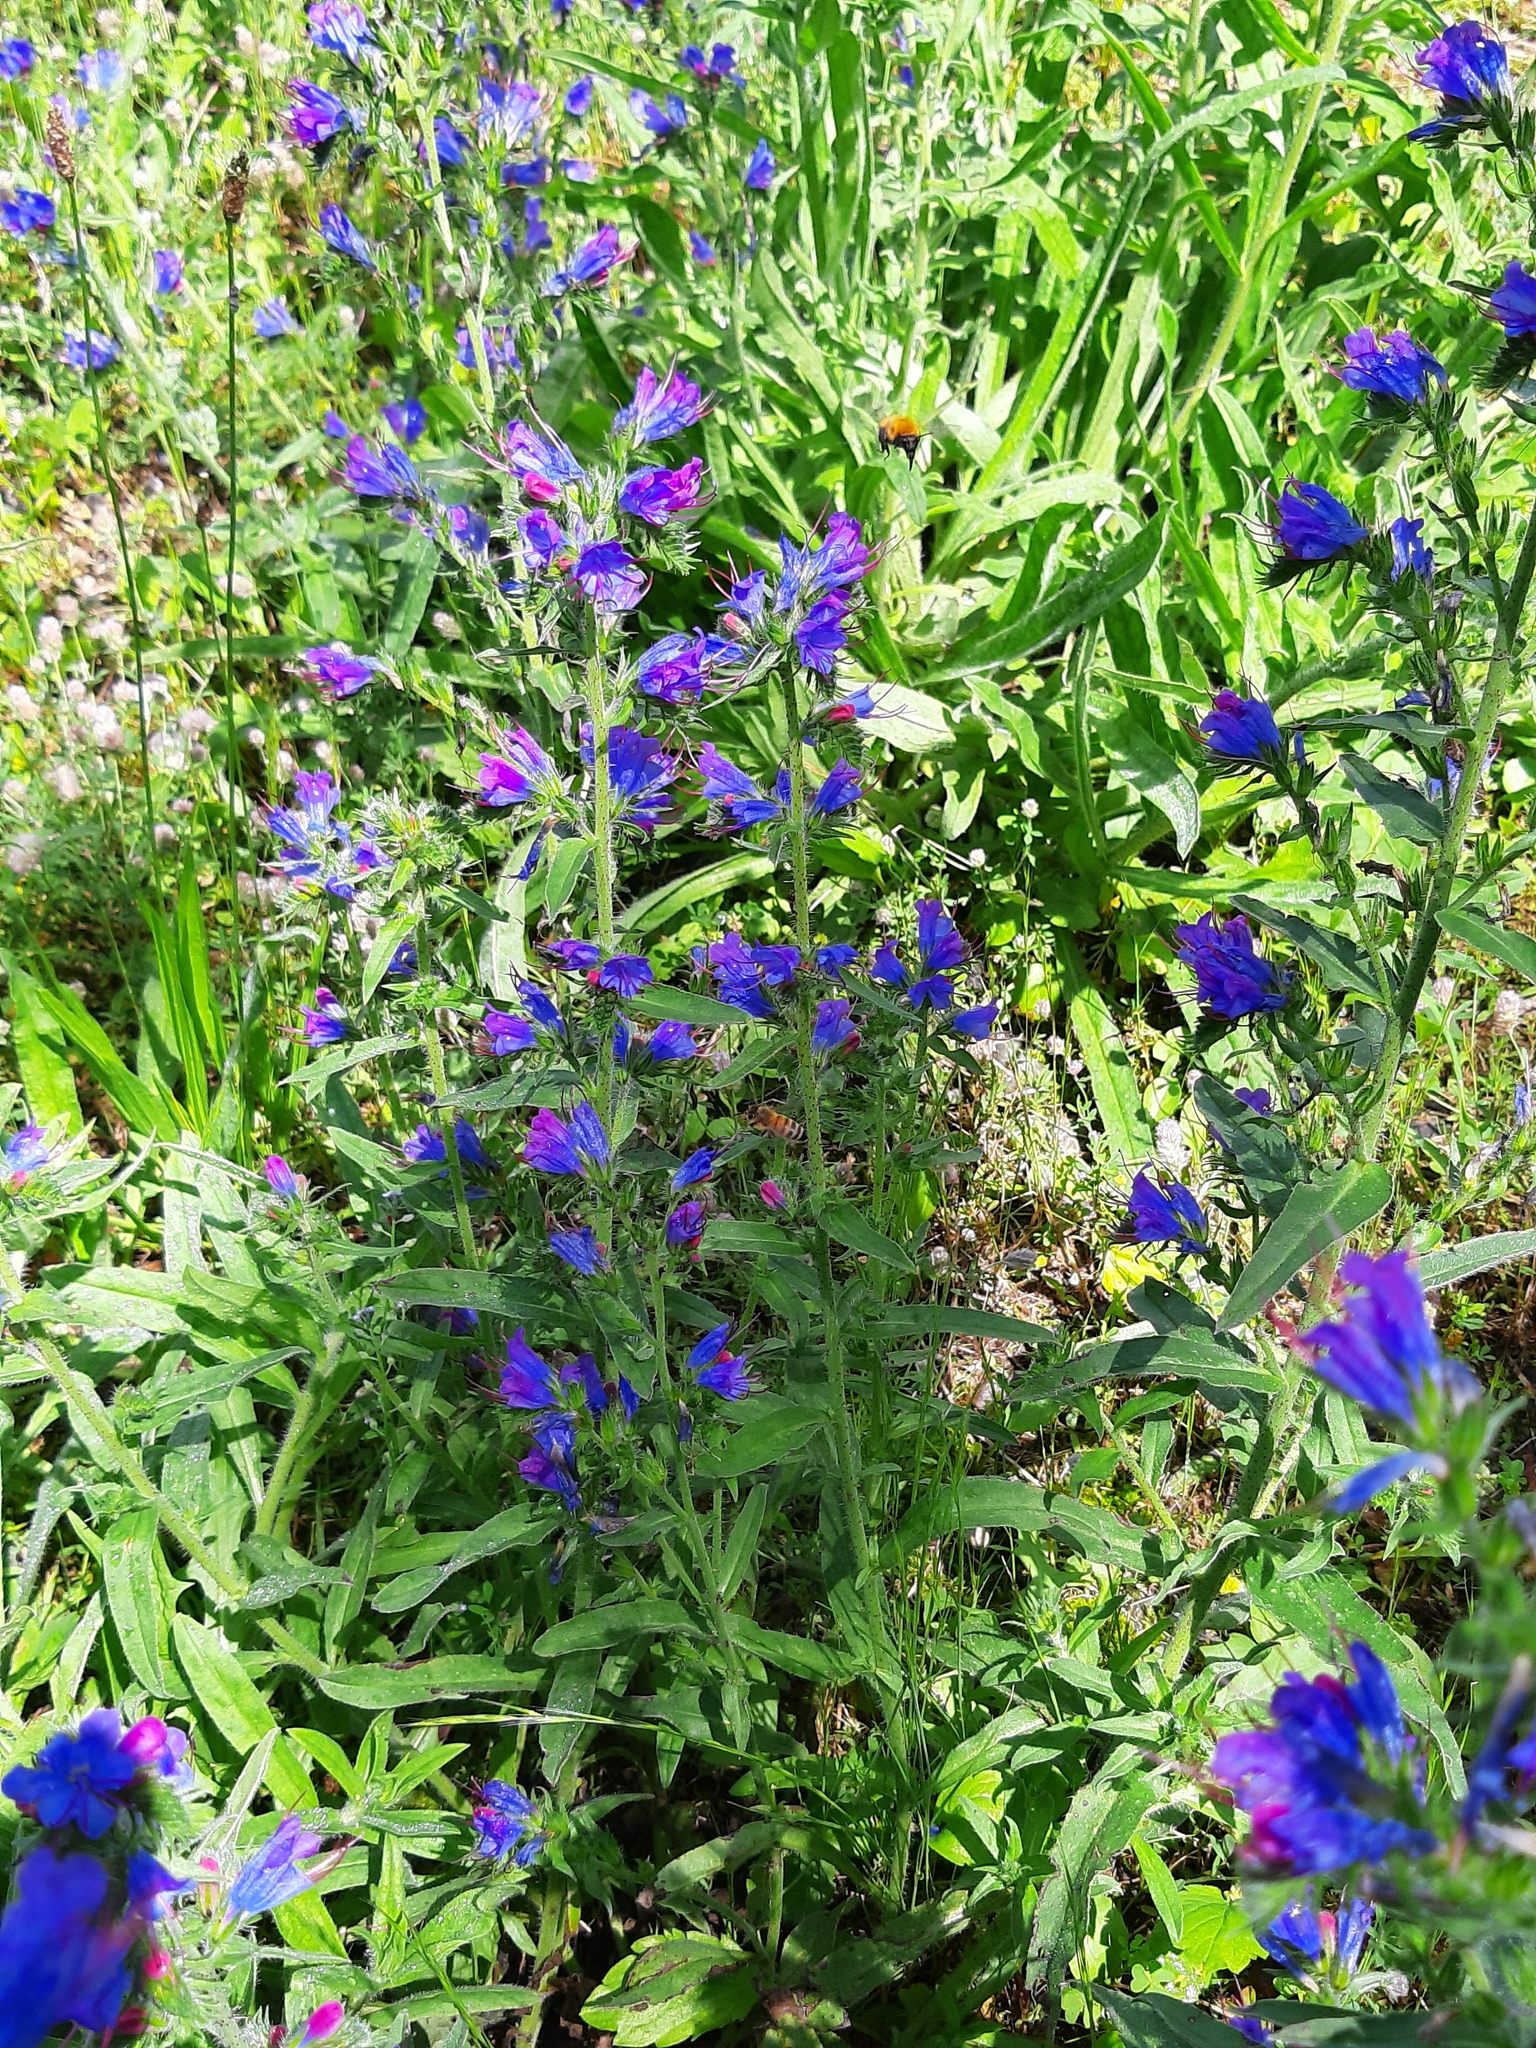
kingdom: Plantae
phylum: Tracheophyta
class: Magnoliopsida
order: Boraginales
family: Boraginaceae
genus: Echium
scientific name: Echium vulgare
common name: Common viper's bugloss
